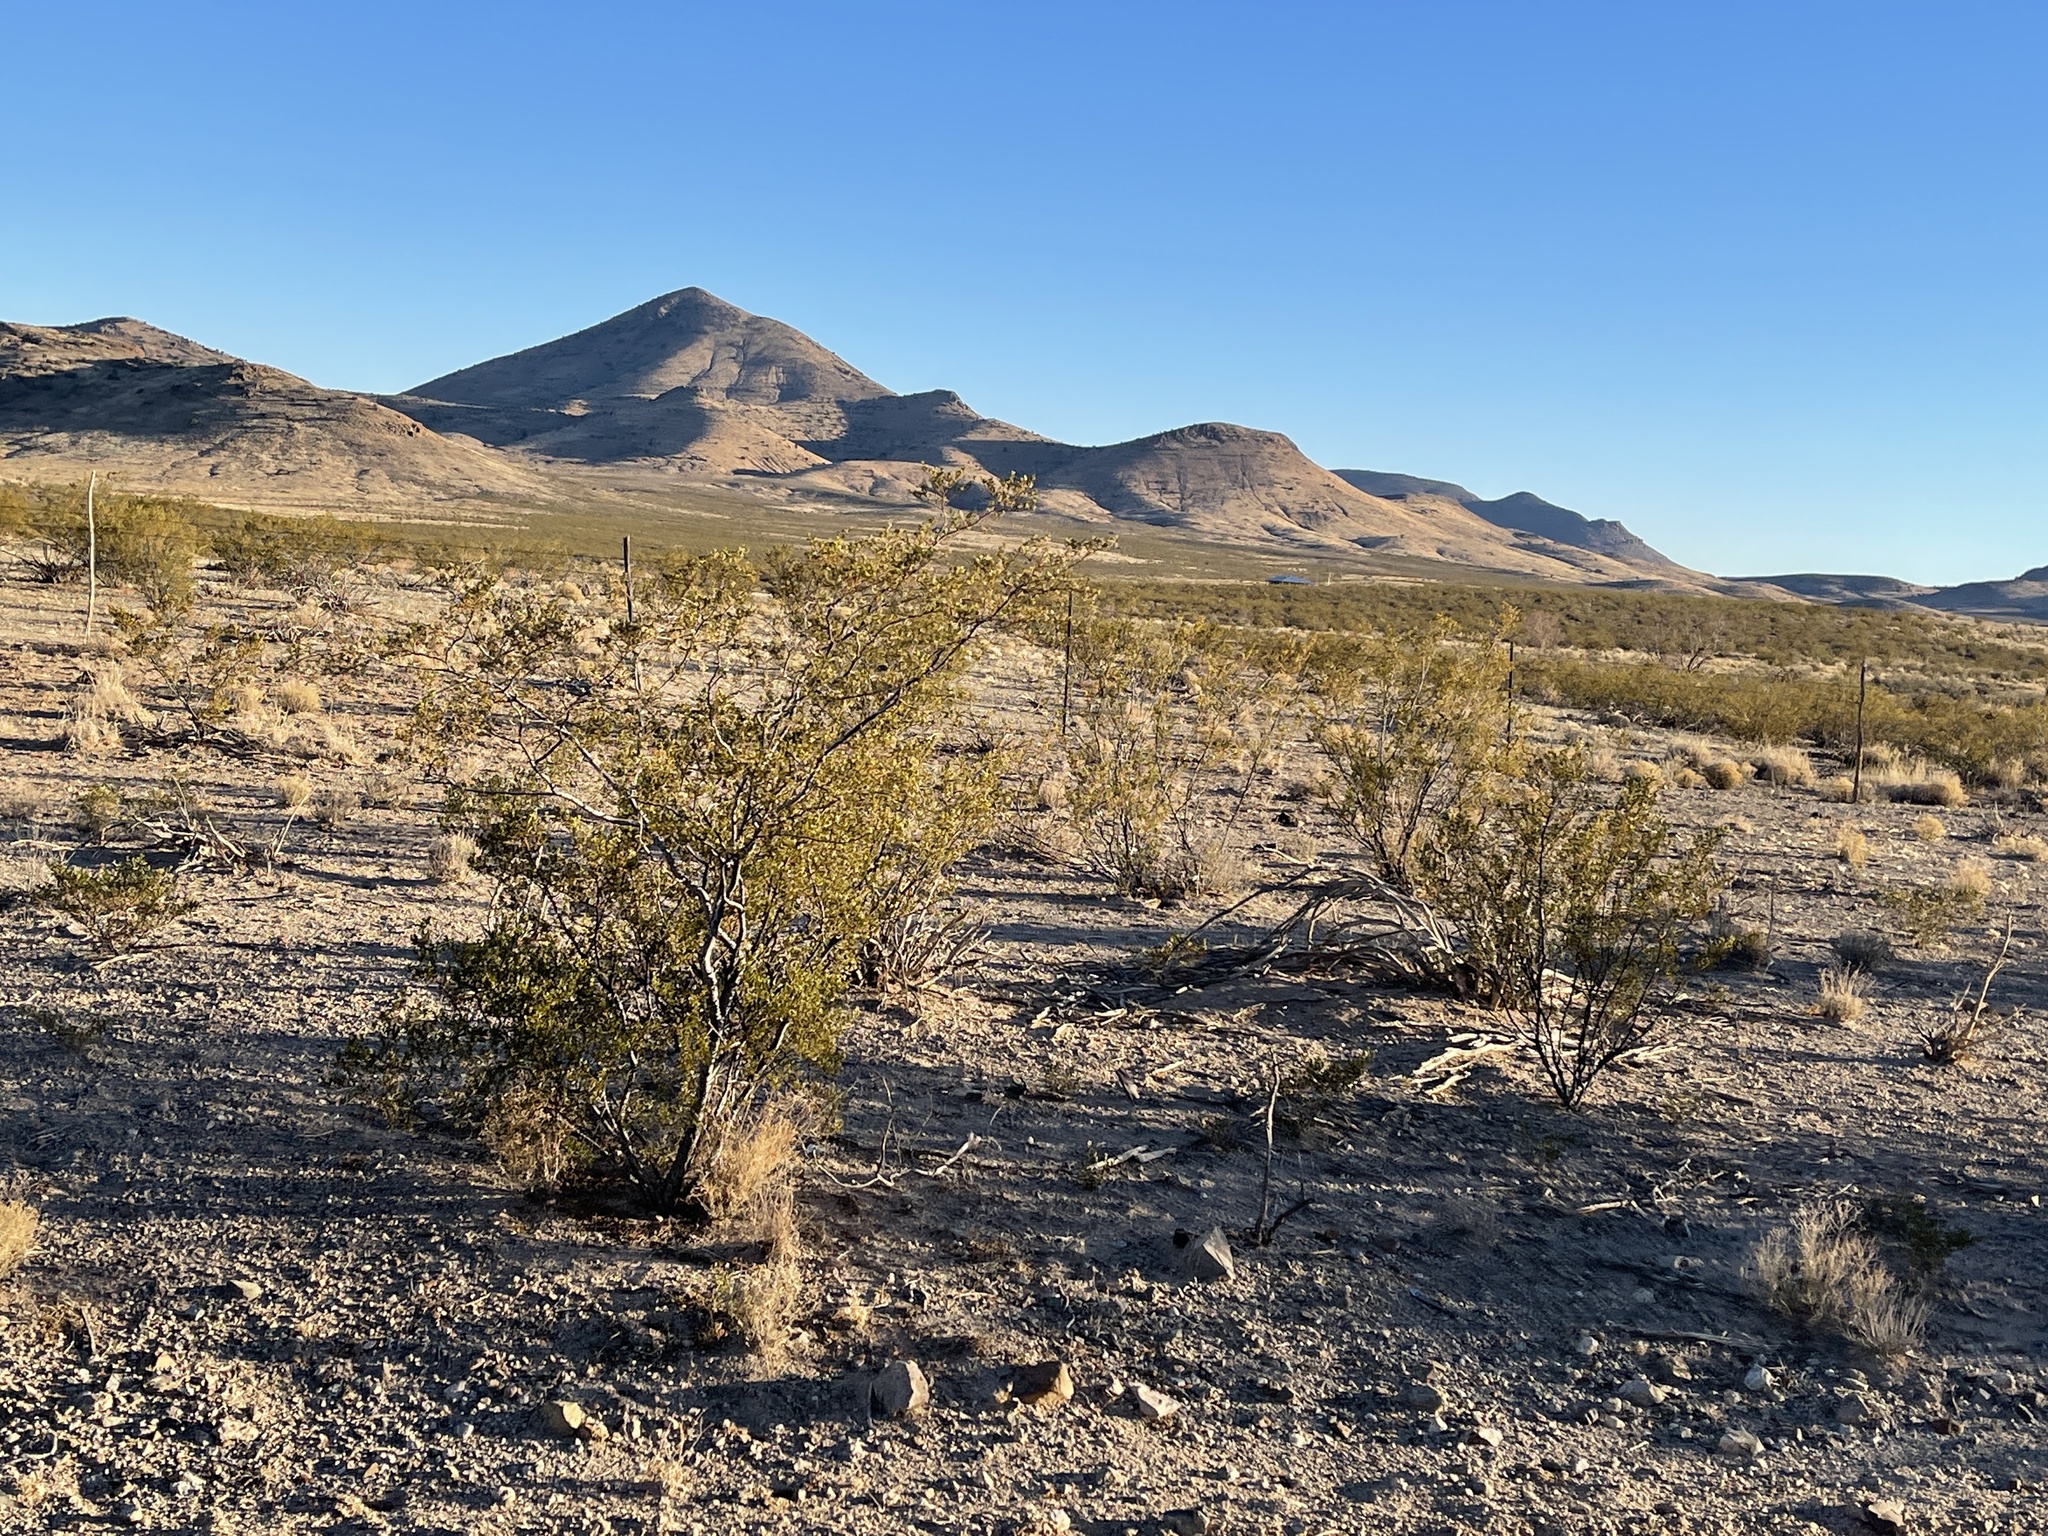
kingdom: Plantae
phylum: Tracheophyta
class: Magnoliopsida
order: Zygophyllales
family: Zygophyllaceae
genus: Larrea
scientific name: Larrea tridentata
